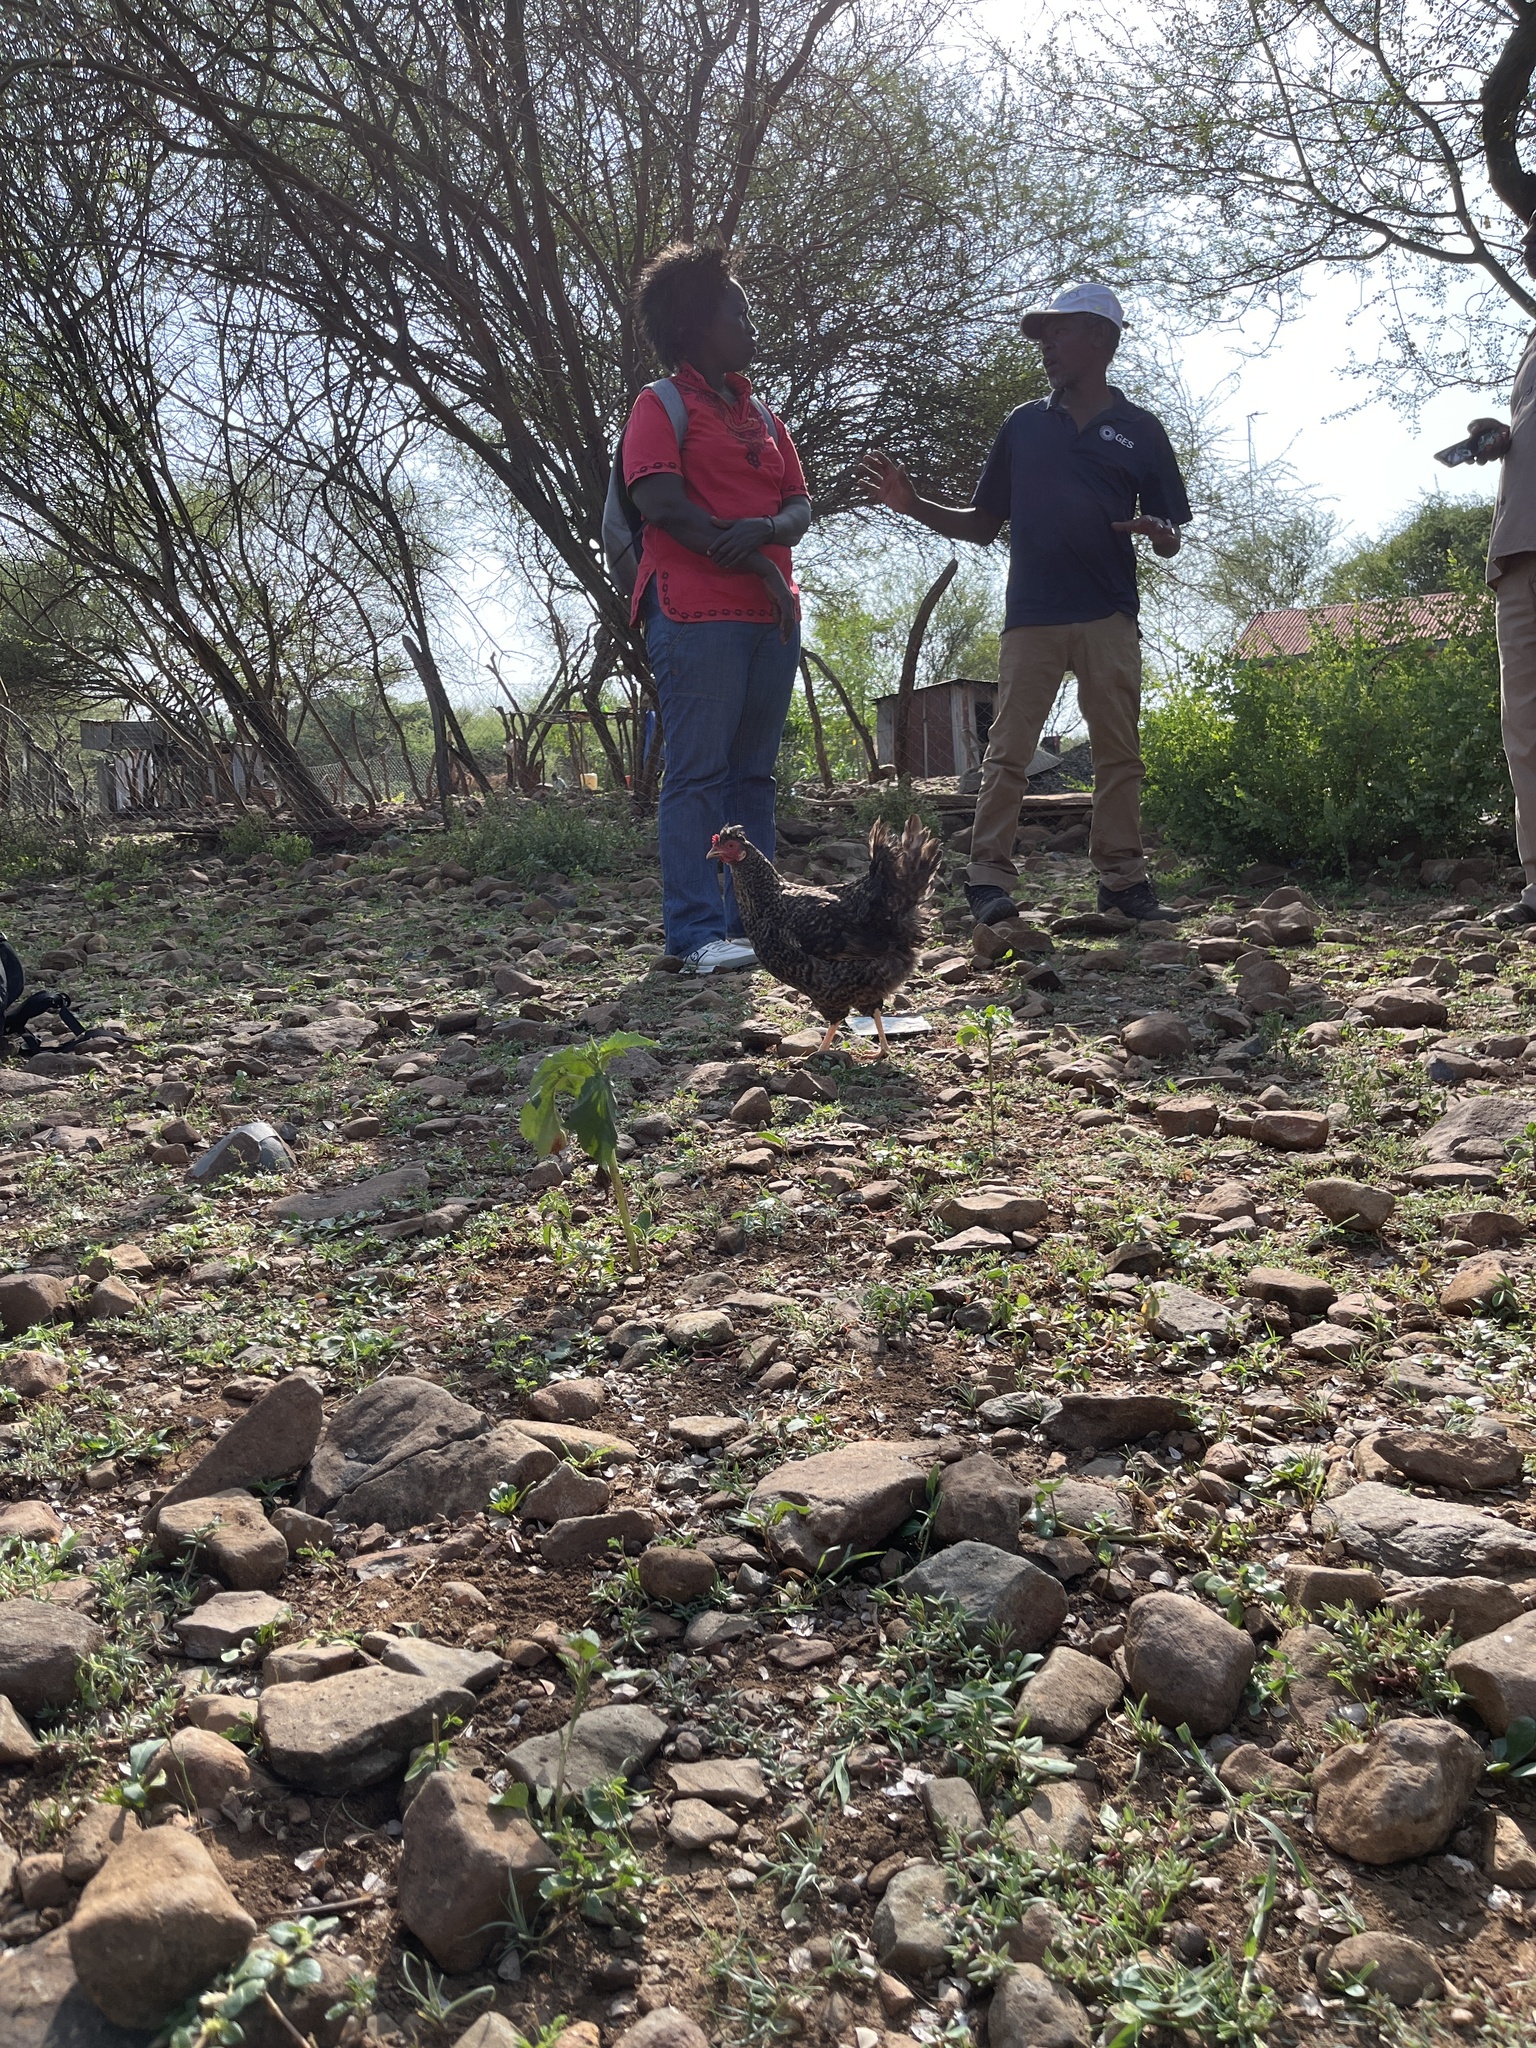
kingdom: Animalia
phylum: Chordata
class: Aves
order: Galliformes
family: Phasianidae
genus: Gallus
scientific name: Gallus gallus
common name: Red junglefowl
